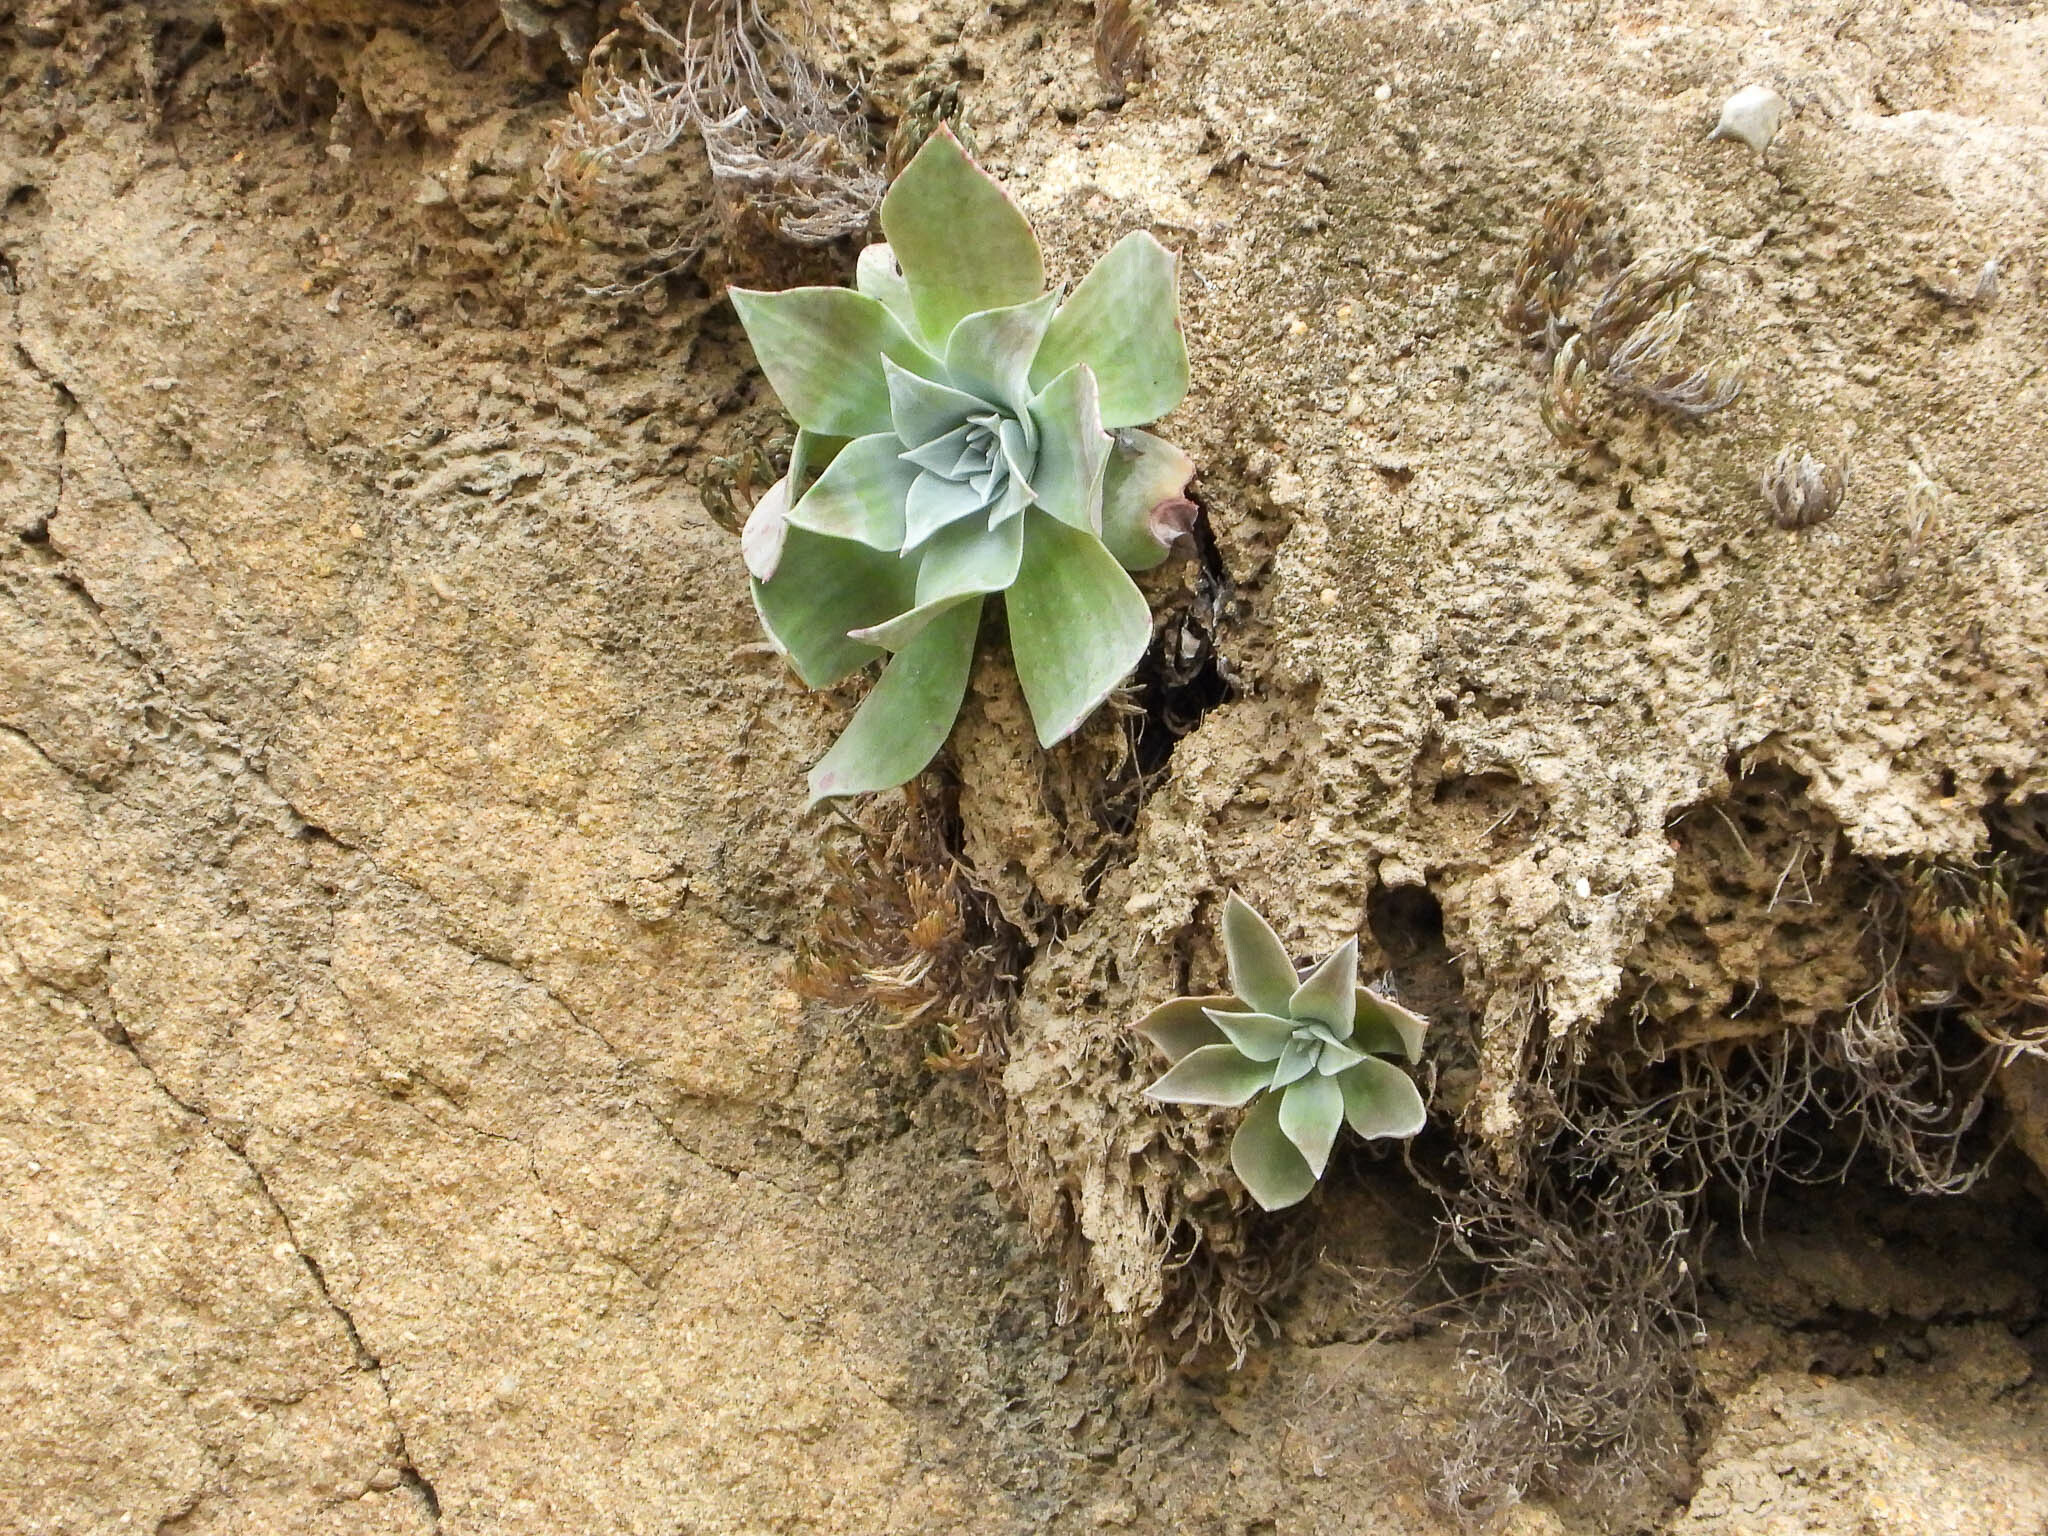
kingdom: Plantae
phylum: Tracheophyta
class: Magnoliopsida
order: Saxifragales
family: Crassulaceae
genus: Dudleya
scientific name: Dudleya pulverulenta
